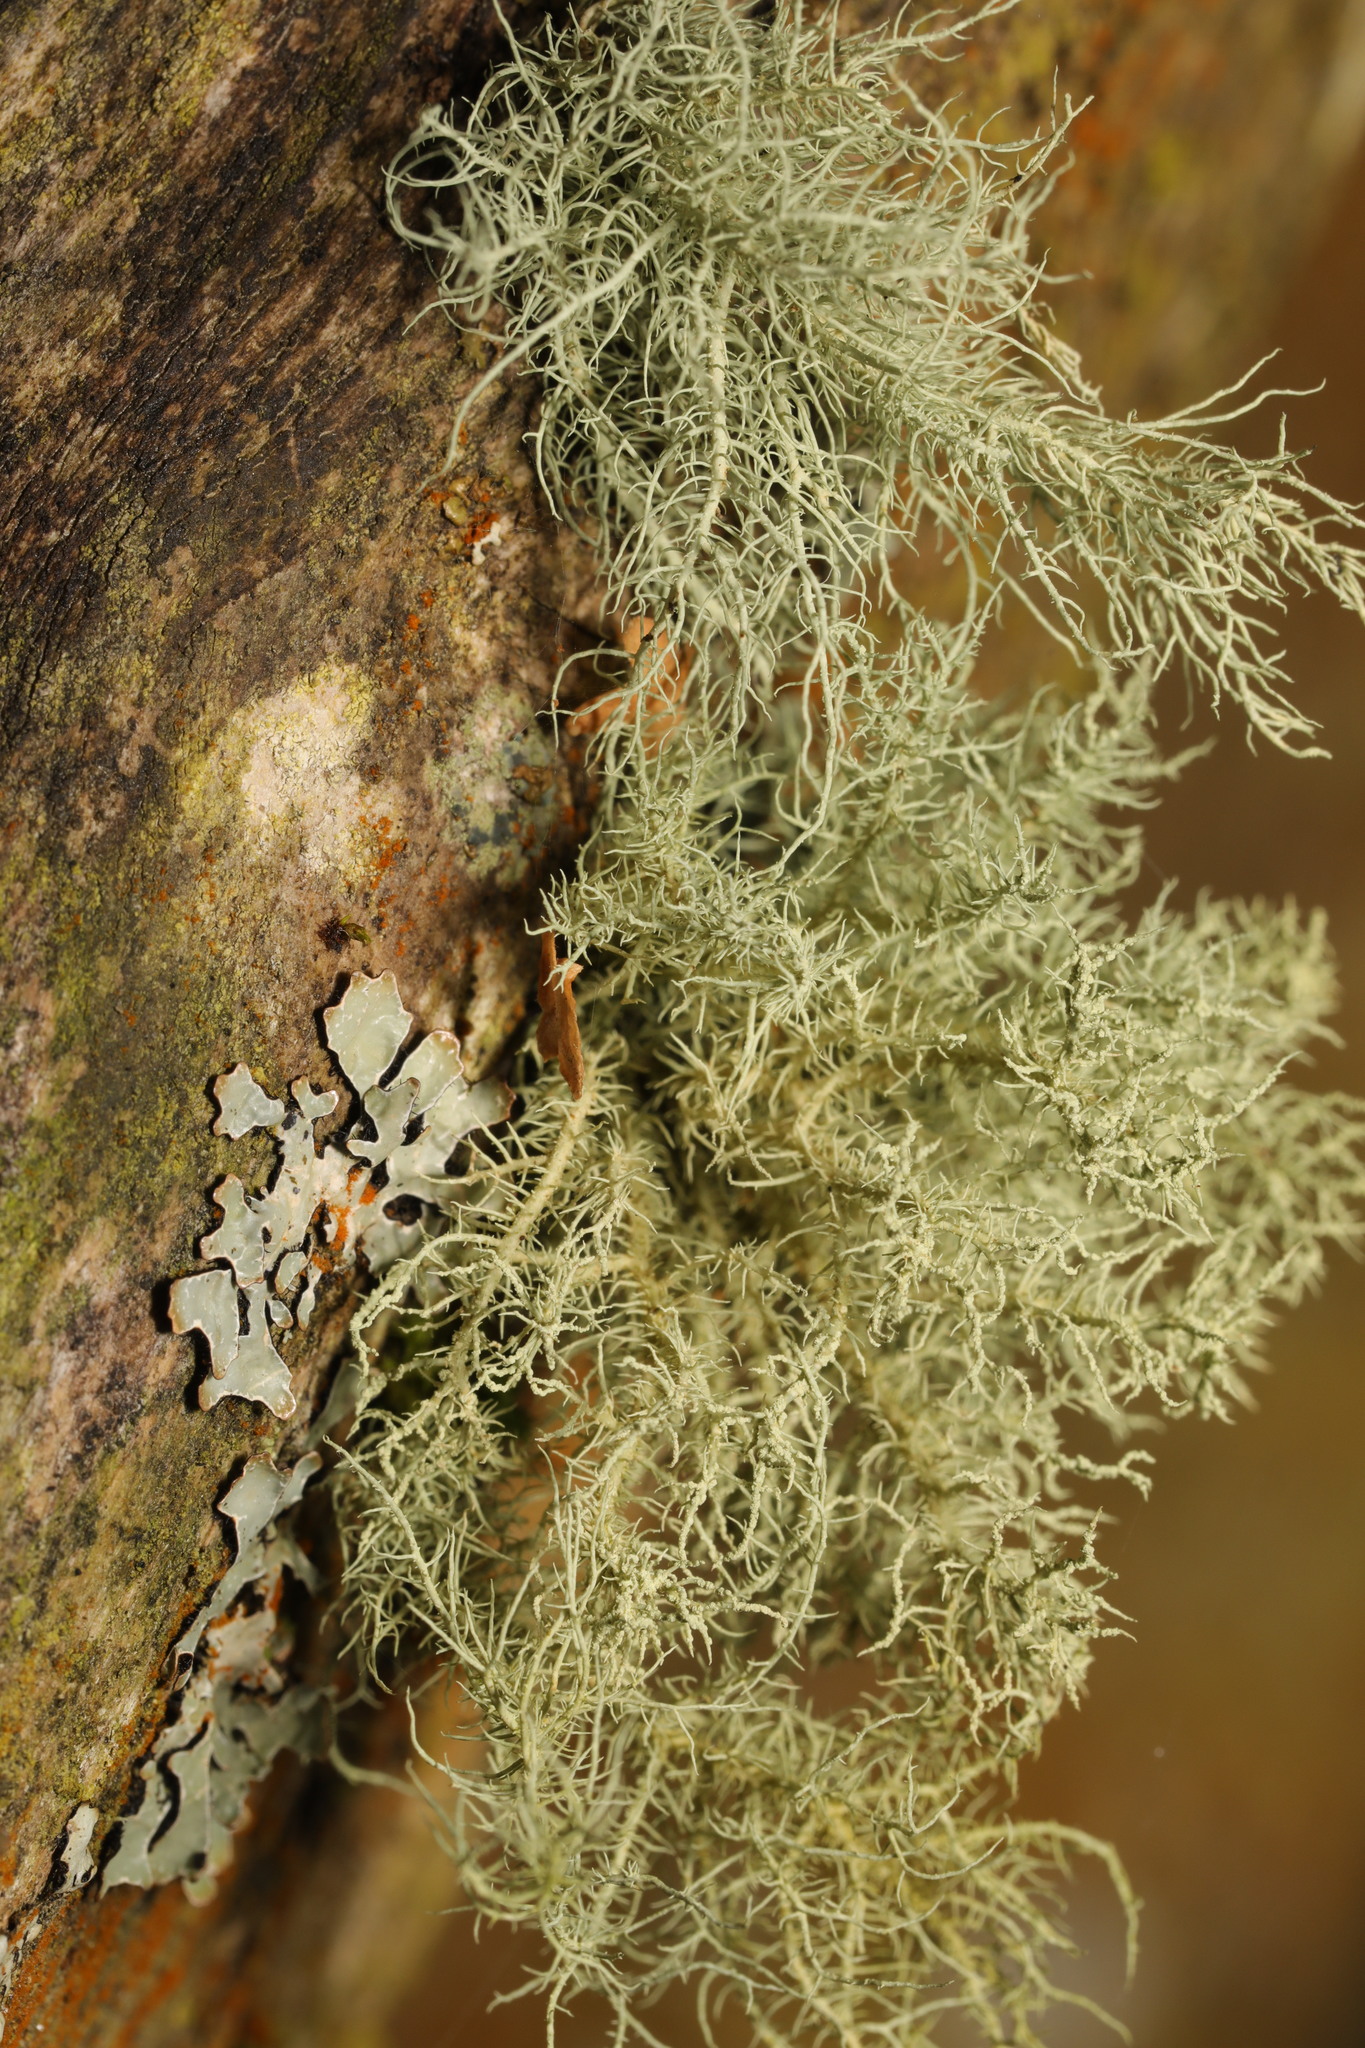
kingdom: Fungi
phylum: Ascomycota
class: Lecanoromycetes
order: Lecanorales
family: Parmeliaceae
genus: Usnea
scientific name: Usnea
